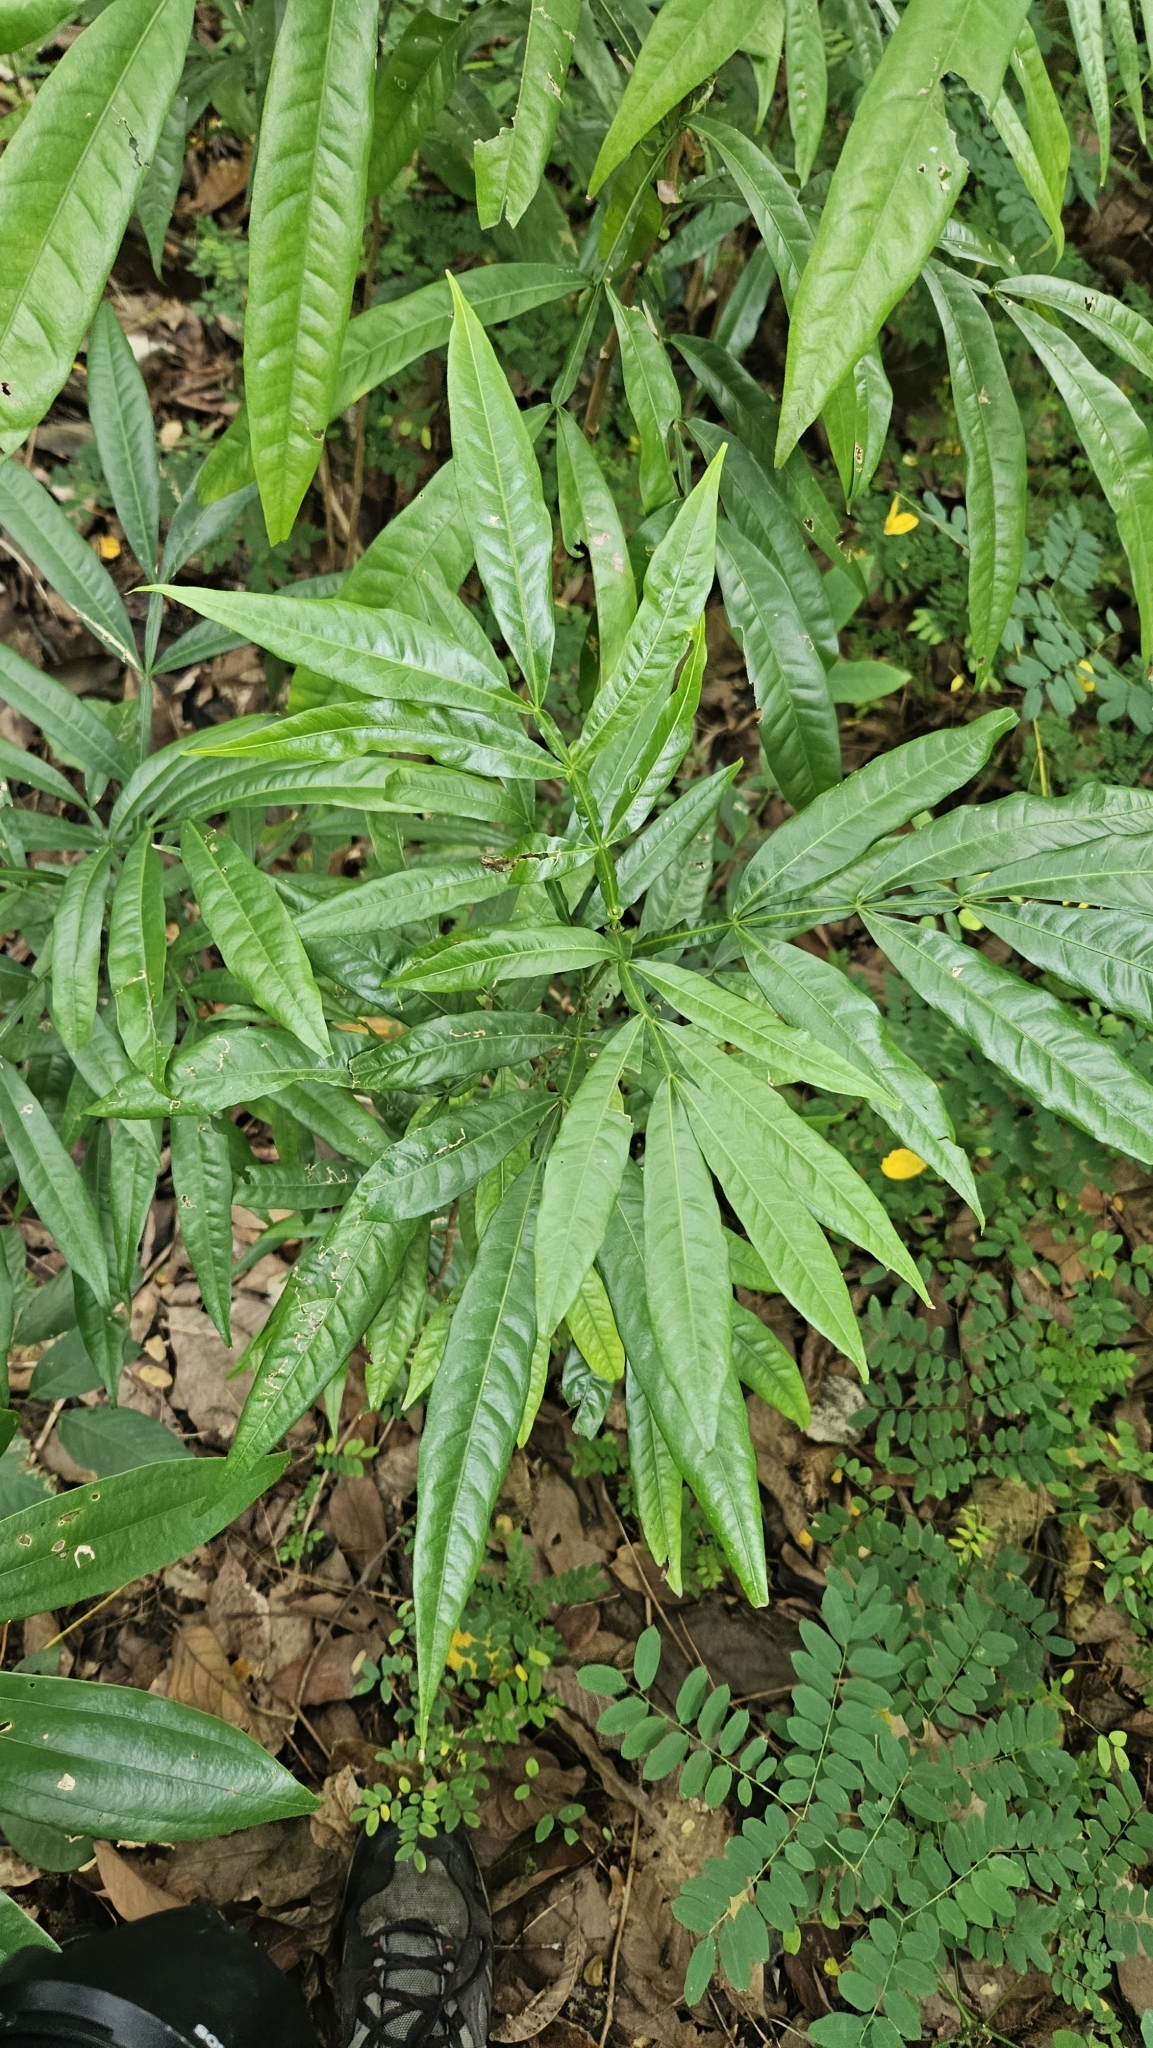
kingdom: Plantae
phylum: Tracheophyta
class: Magnoliopsida
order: Sapindales
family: Sapindaceae
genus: Lepisanthes
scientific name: Lepisanthes alata
